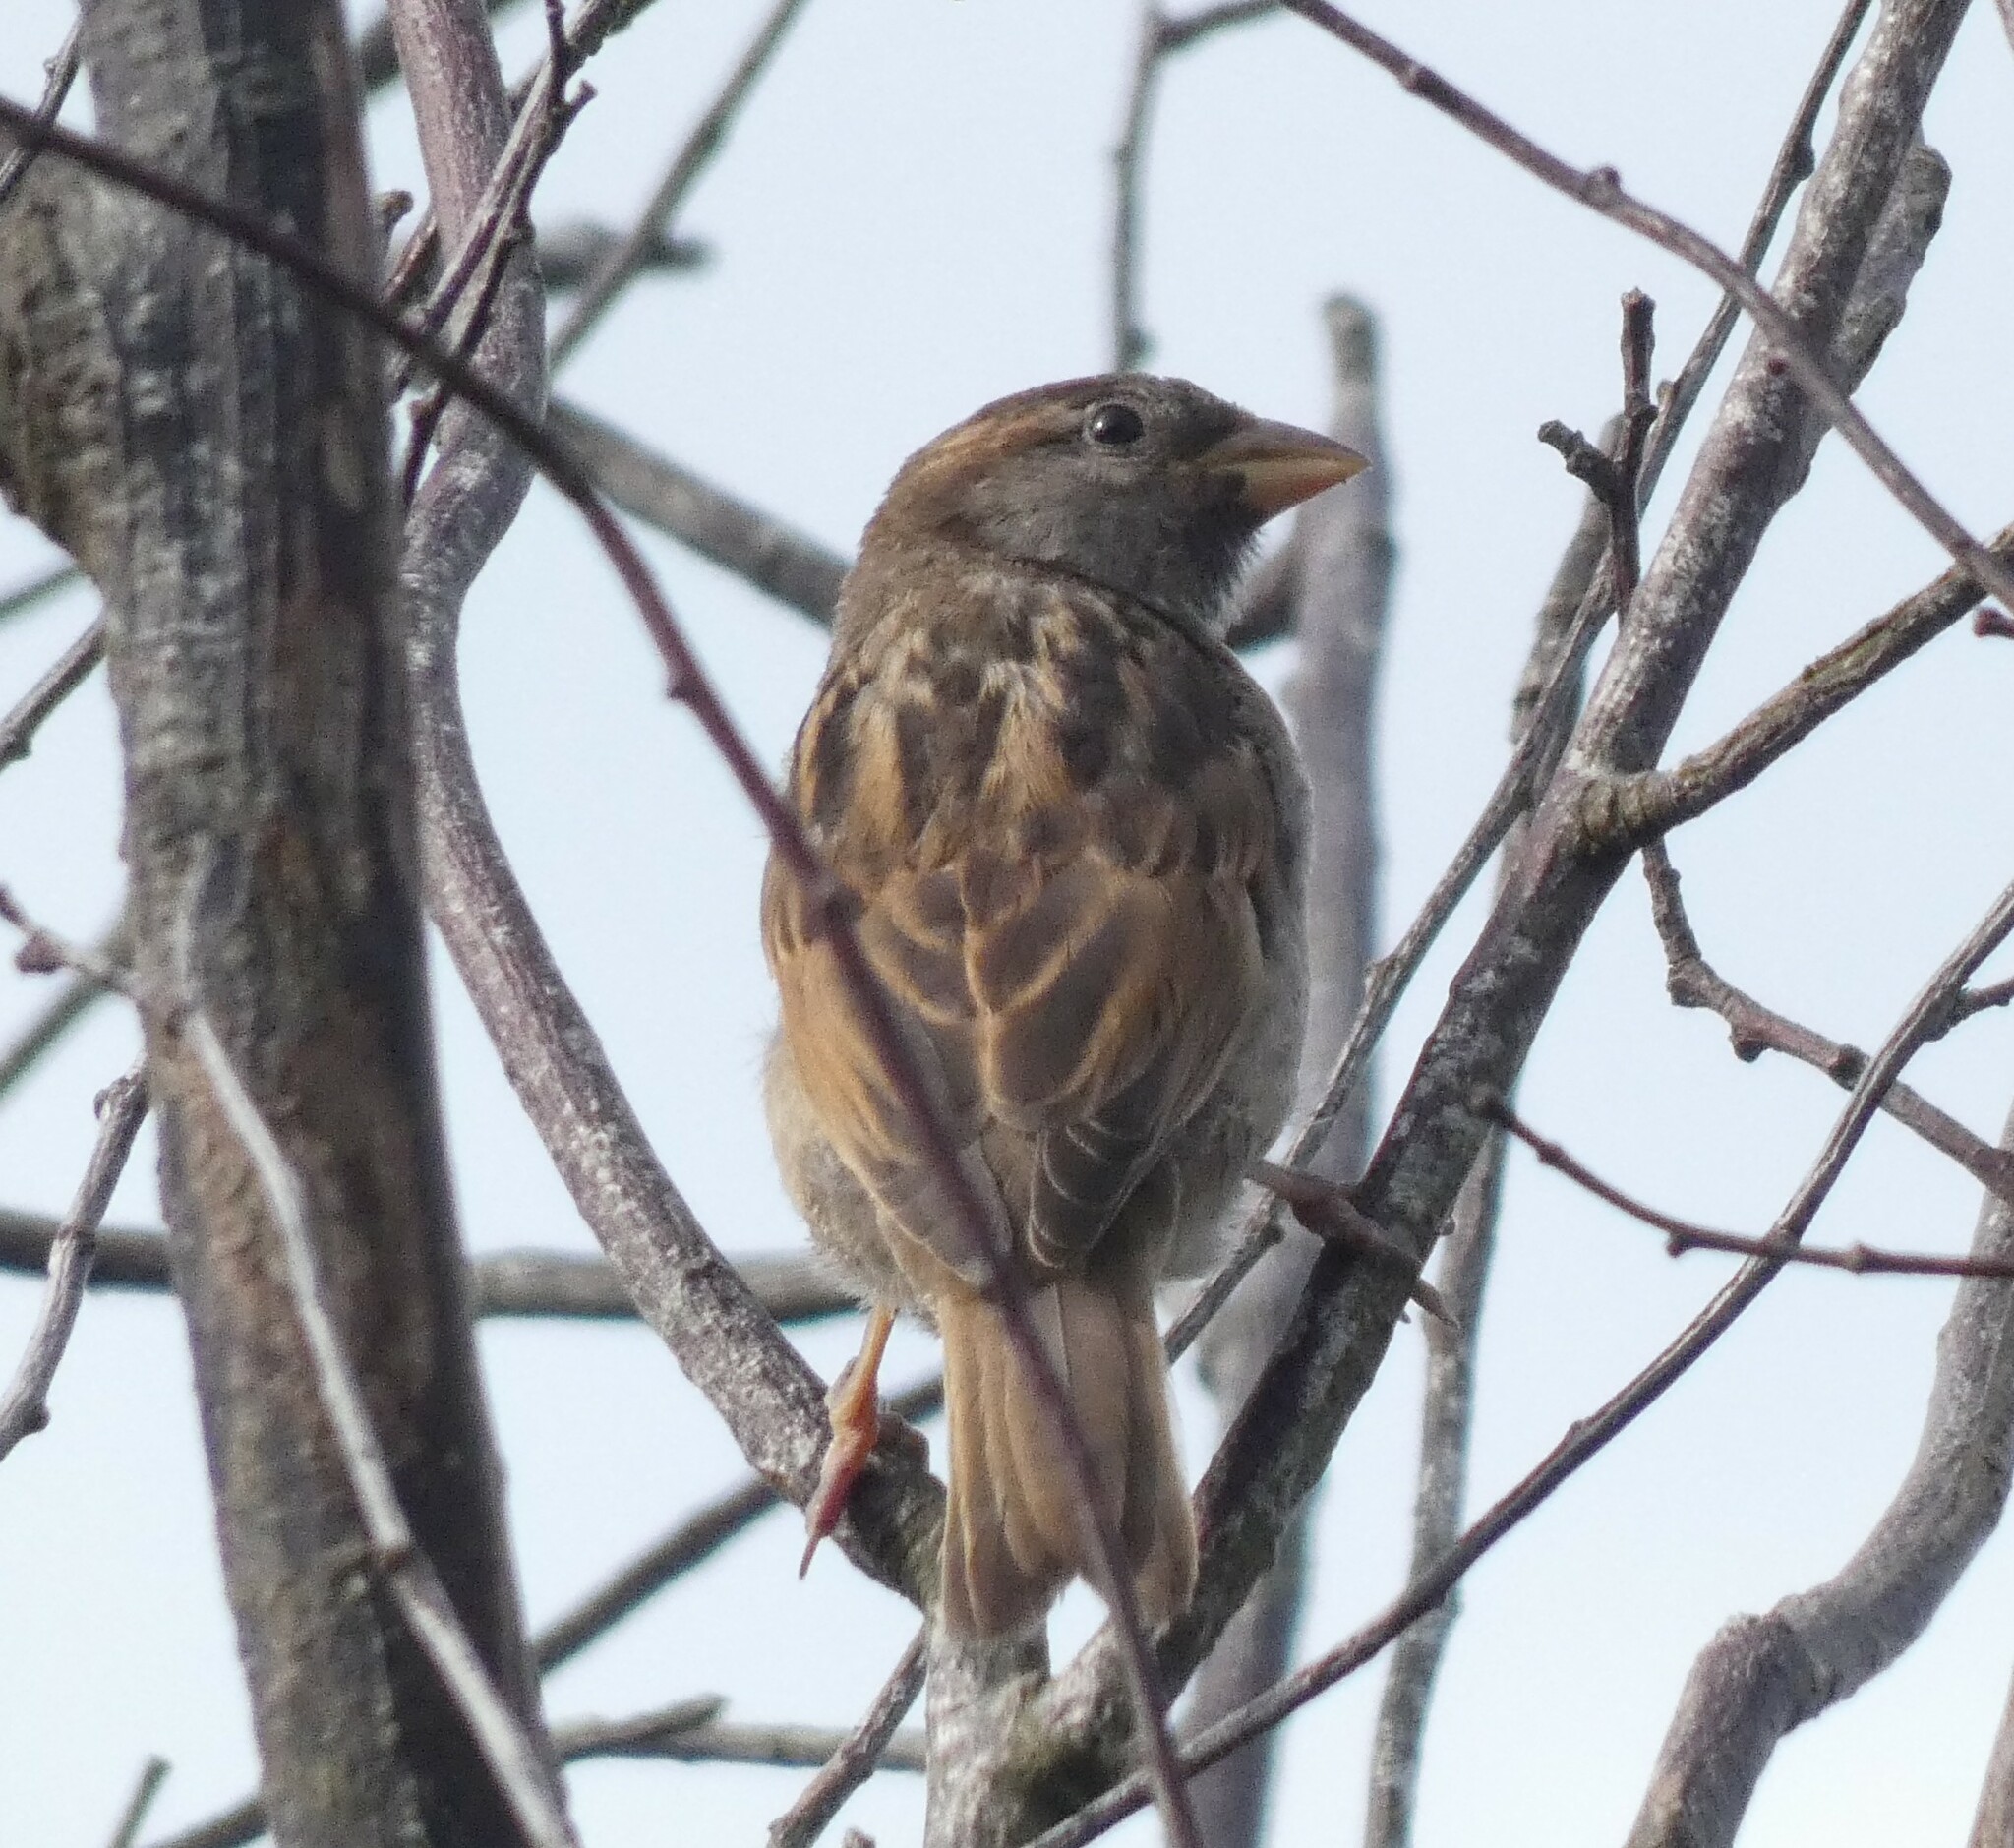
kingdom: Animalia
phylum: Chordata
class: Aves
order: Passeriformes
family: Passeridae
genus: Passer
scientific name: Passer domesticus
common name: House sparrow
